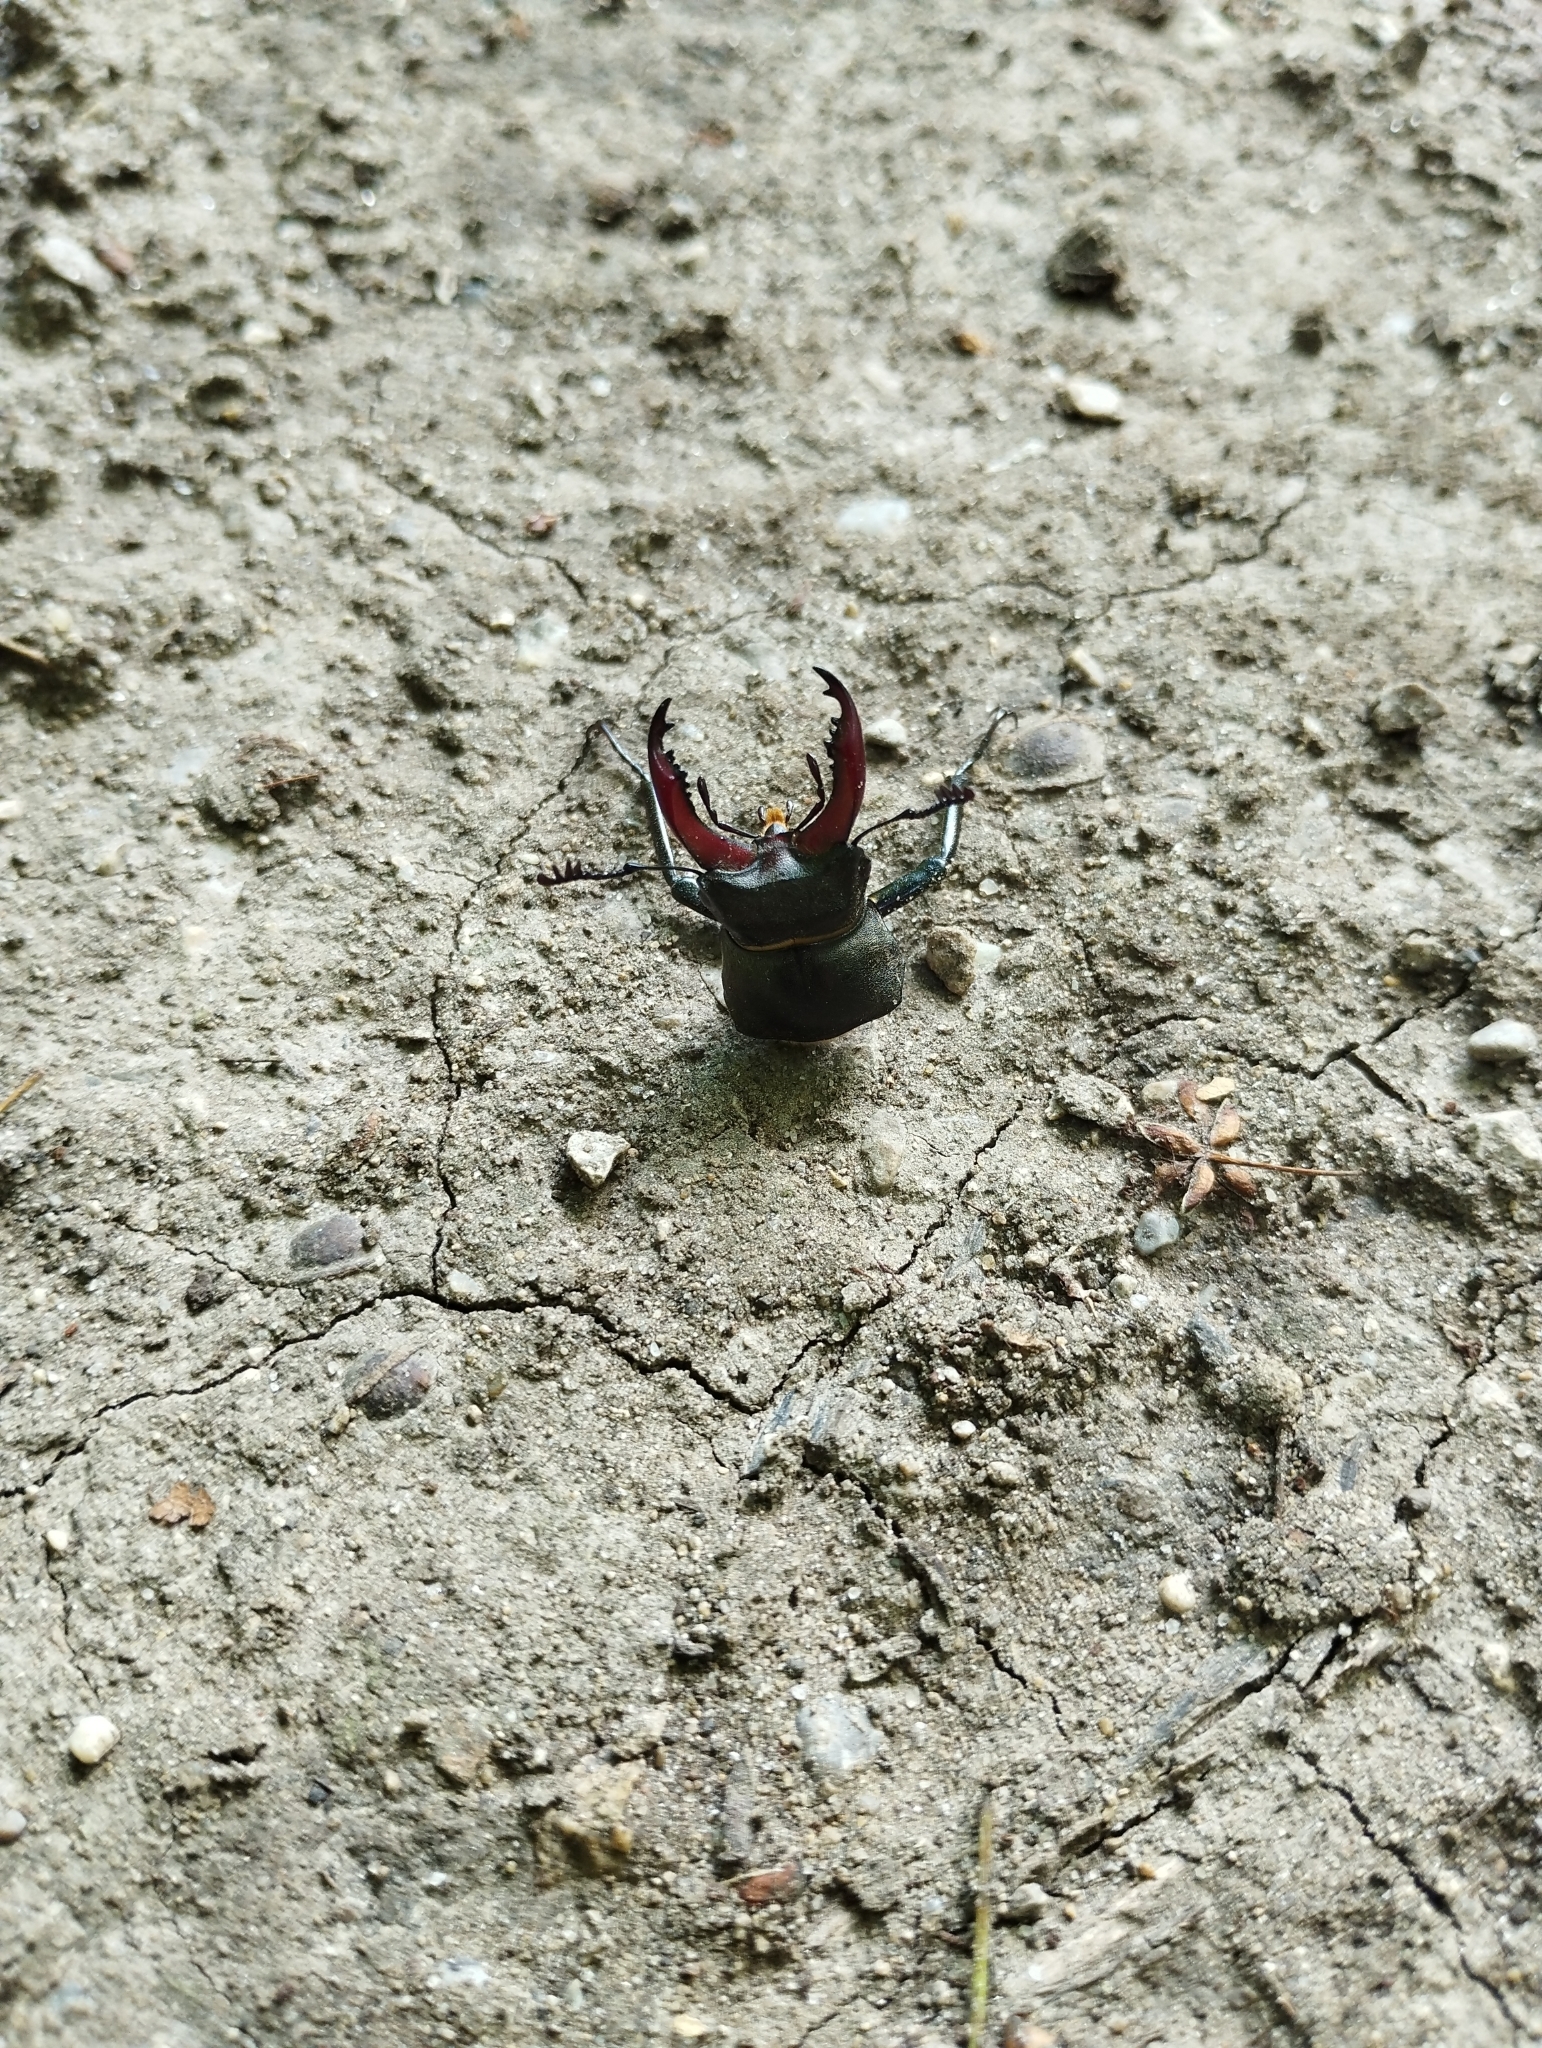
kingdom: Animalia
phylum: Arthropoda
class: Insecta
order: Coleoptera
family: Lucanidae
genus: Lucanus
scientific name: Lucanus cervus
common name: Stag beetle
